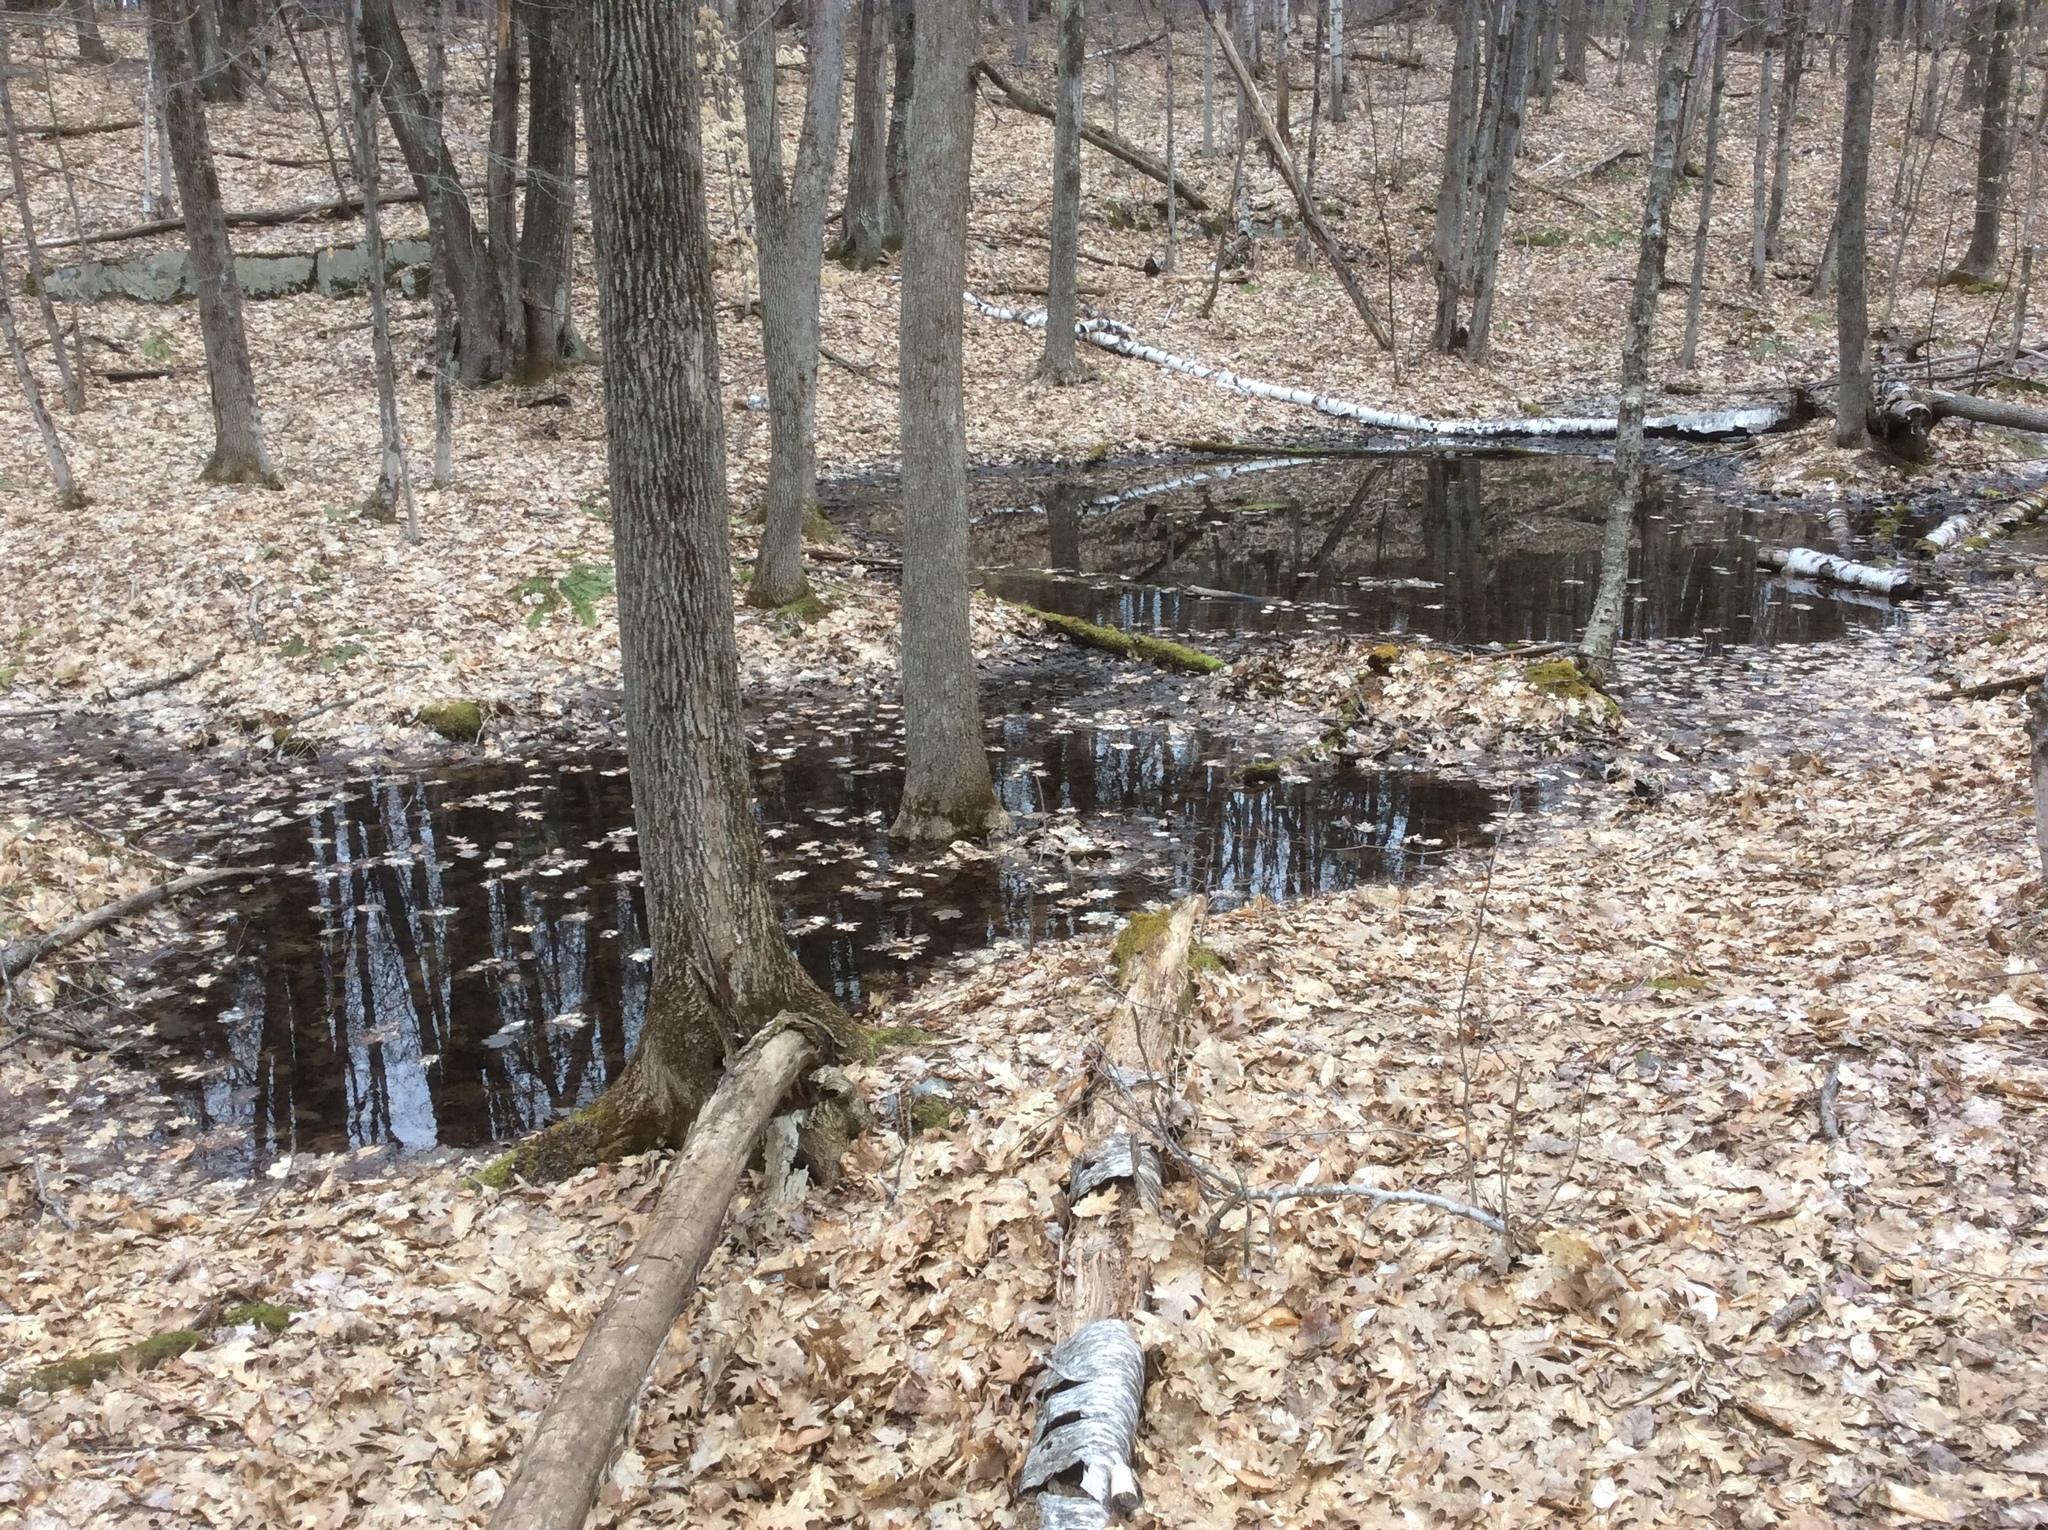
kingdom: Animalia
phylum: Chordata
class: Amphibia
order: Caudata
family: Ambystomatidae
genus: Ambystoma
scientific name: Ambystoma maculatum
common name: Spotted salamander
